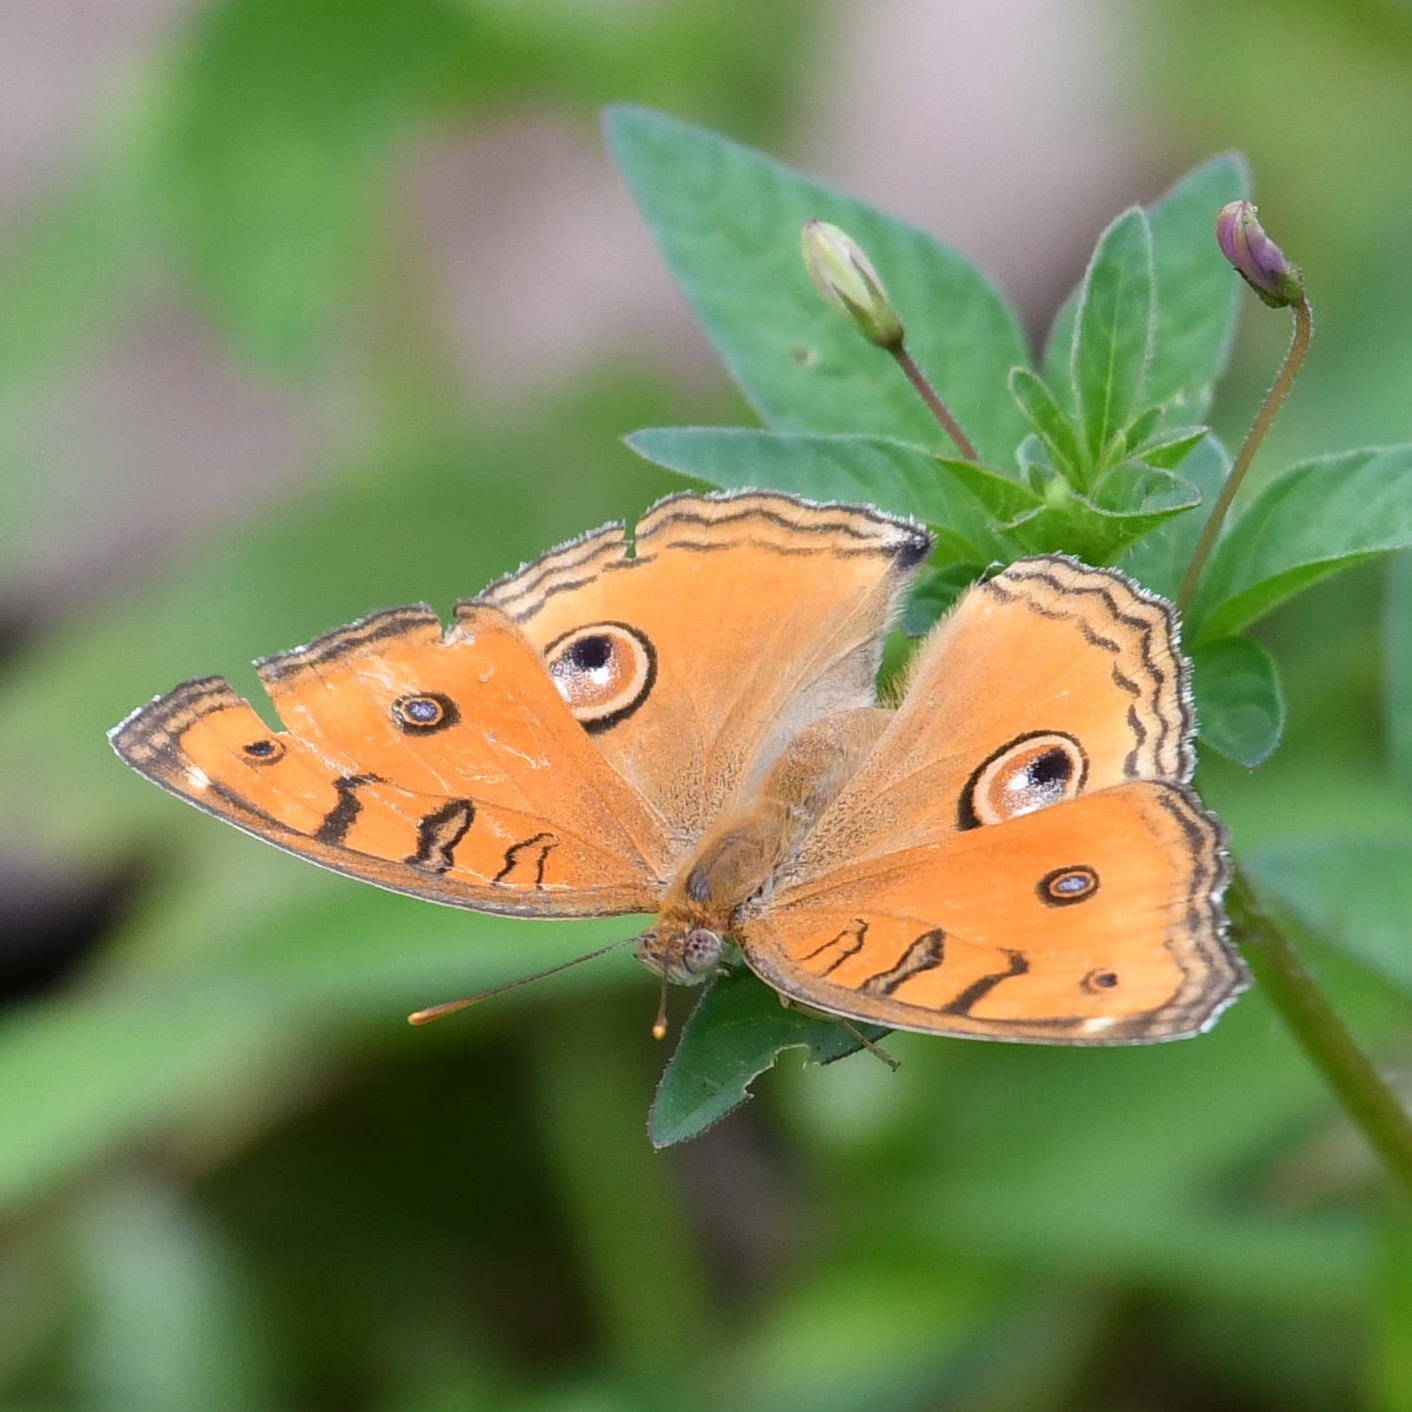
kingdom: Animalia
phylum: Arthropoda
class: Insecta
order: Lepidoptera
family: Nymphalidae
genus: Junonia
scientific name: Junonia almana
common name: Peacock pansy
